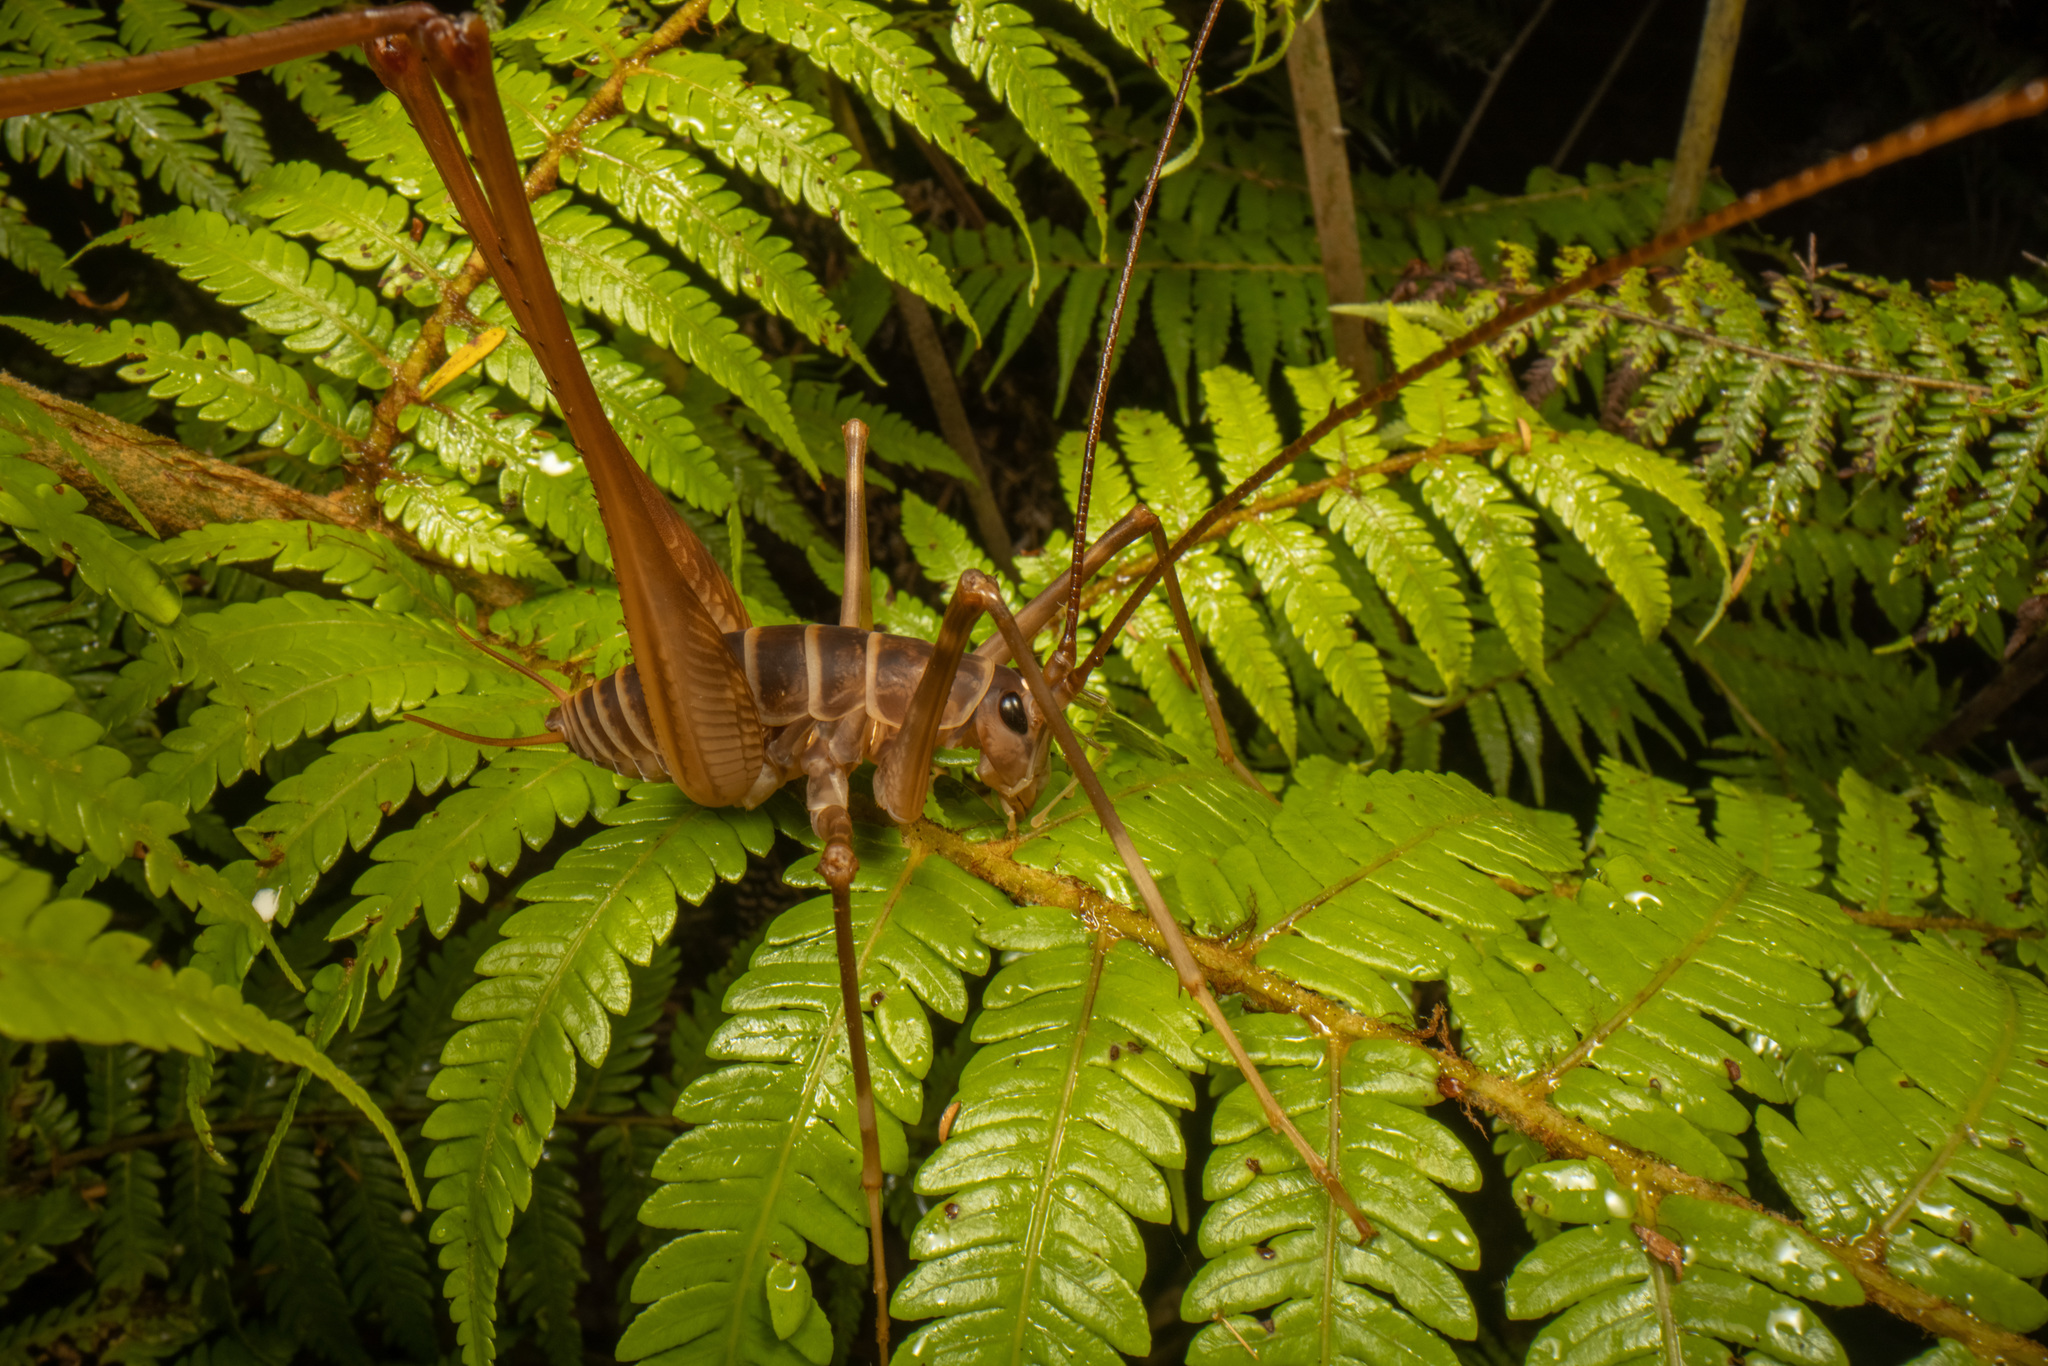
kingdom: Animalia
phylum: Arthropoda
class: Insecta
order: Orthoptera
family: Rhaphidophoridae
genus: Pachyrhamma
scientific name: Pachyrhamma acanthocera
